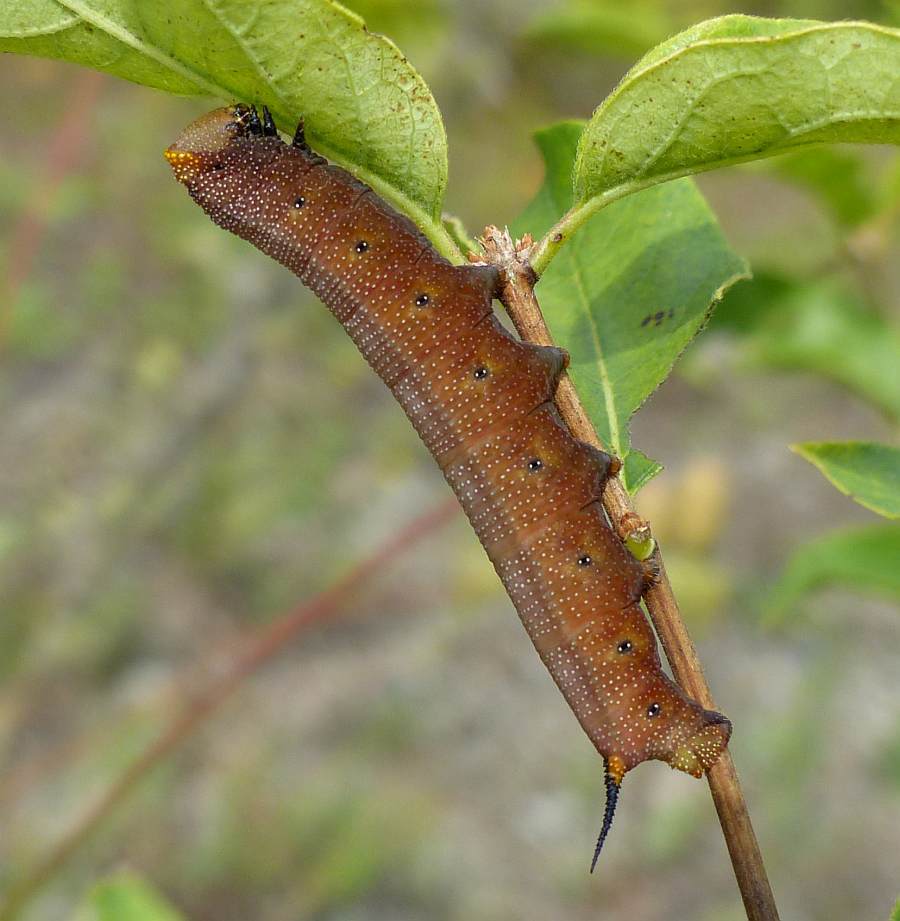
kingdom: Animalia
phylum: Arthropoda
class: Insecta
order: Lepidoptera
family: Sphingidae
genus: Hemaris
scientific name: Hemaris diffinis
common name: Bumblebee moth
